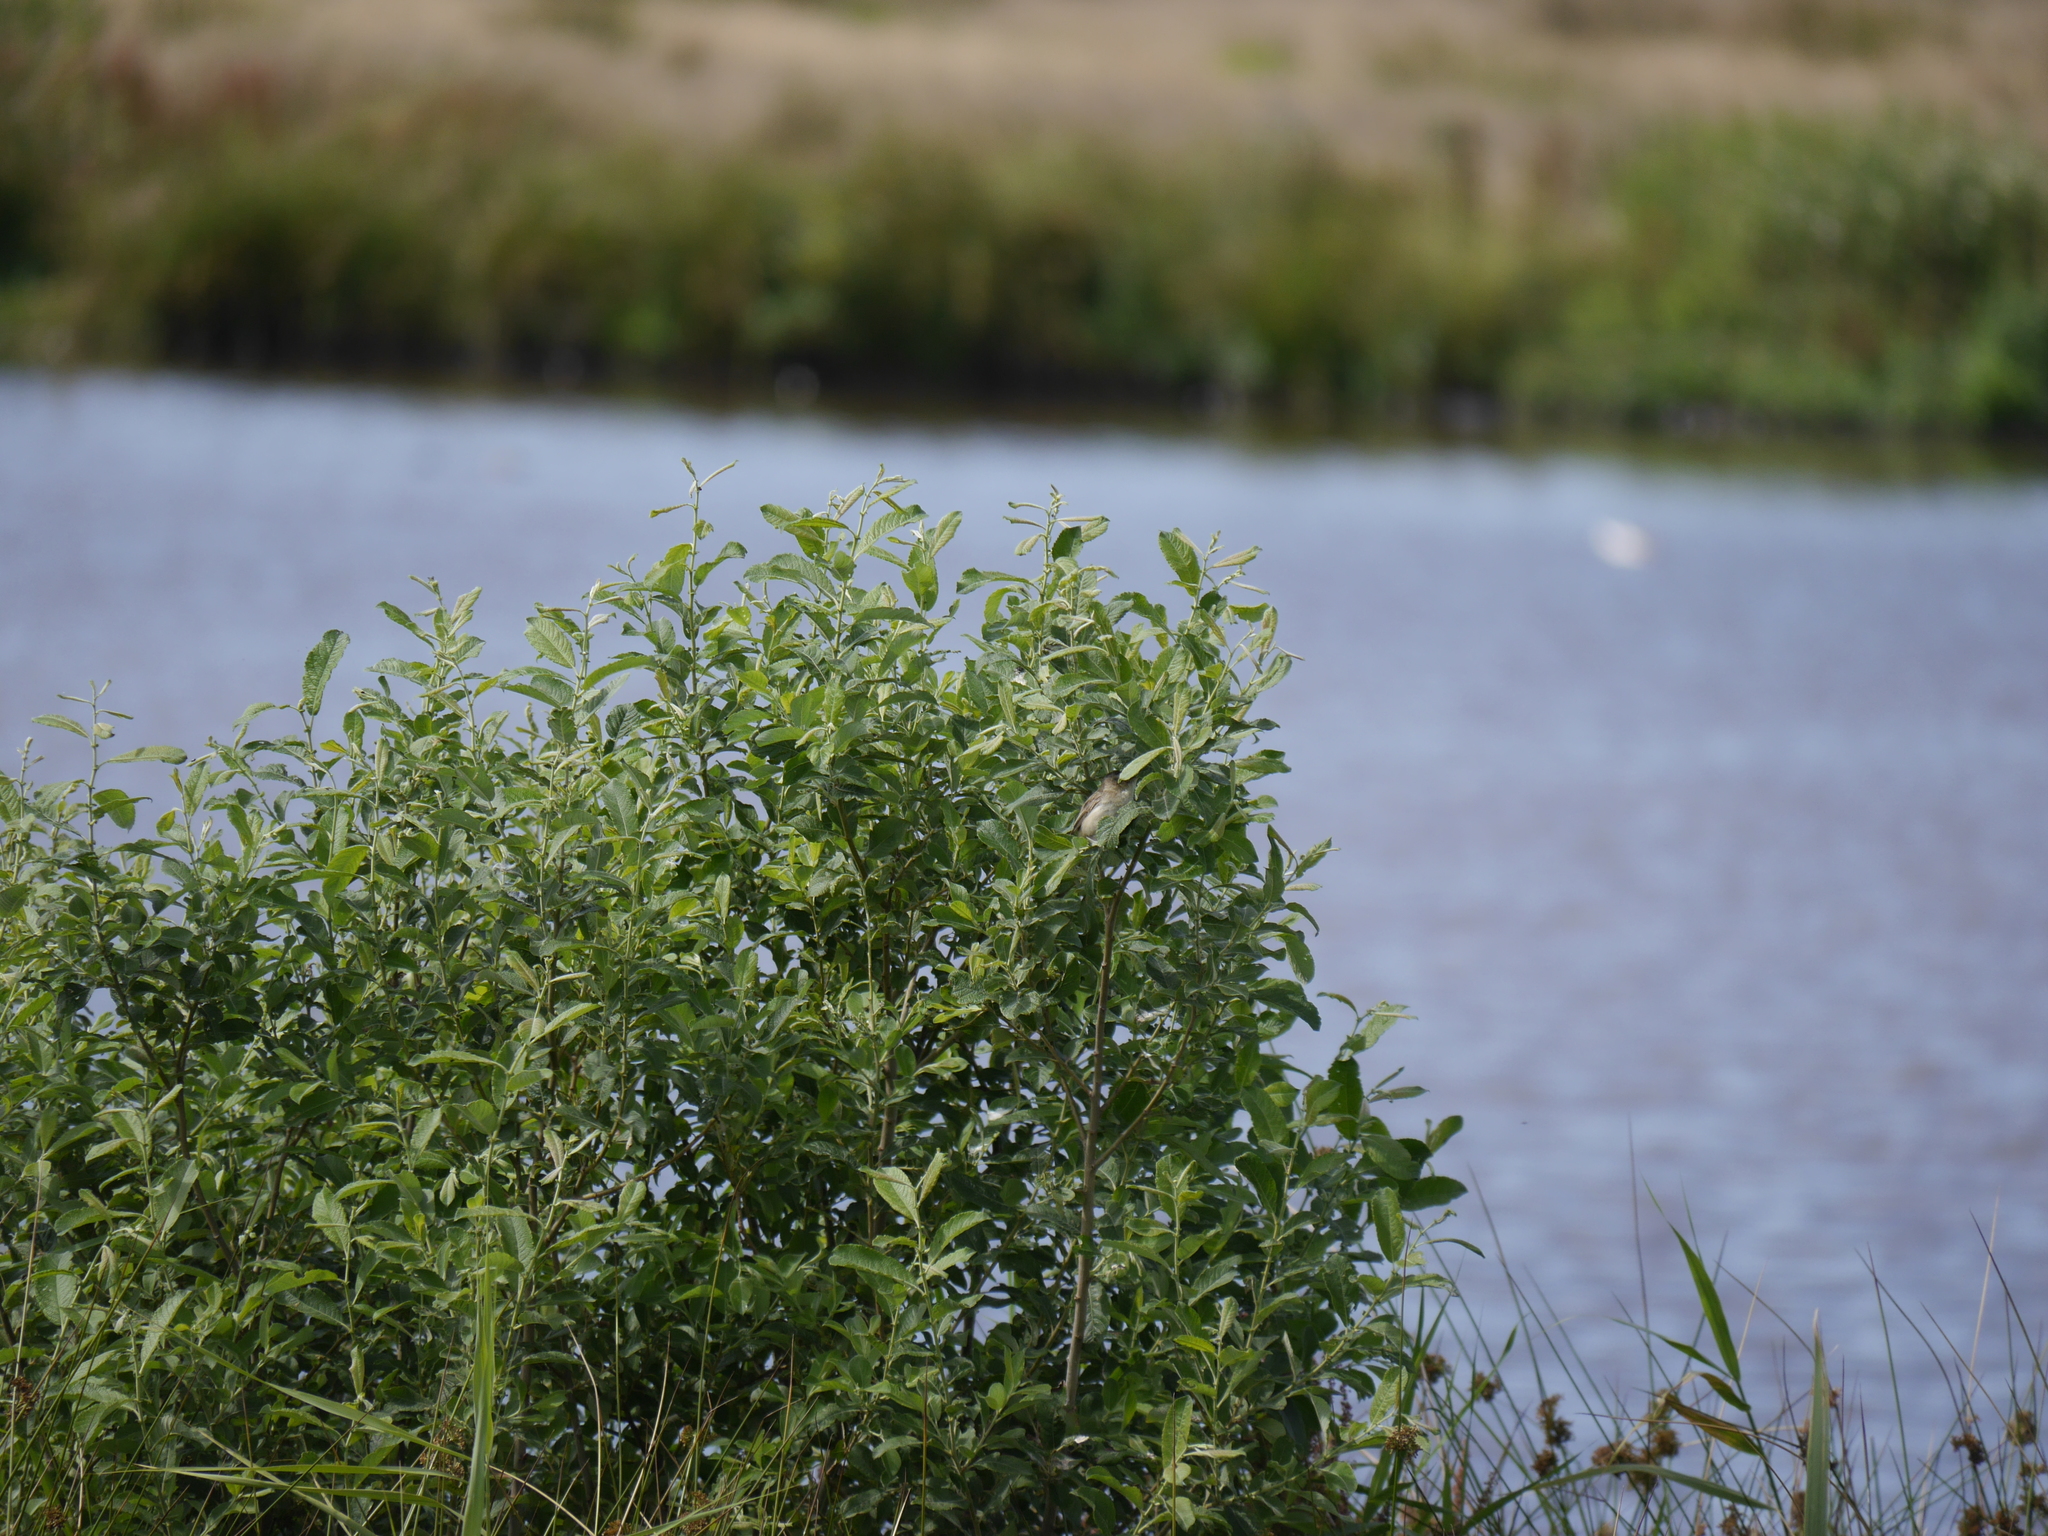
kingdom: Animalia
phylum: Chordata
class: Aves
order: Passeriformes
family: Acrocephalidae
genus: Acrocephalus
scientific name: Acrocephalus schoenobaenus
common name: Sedge warbler
